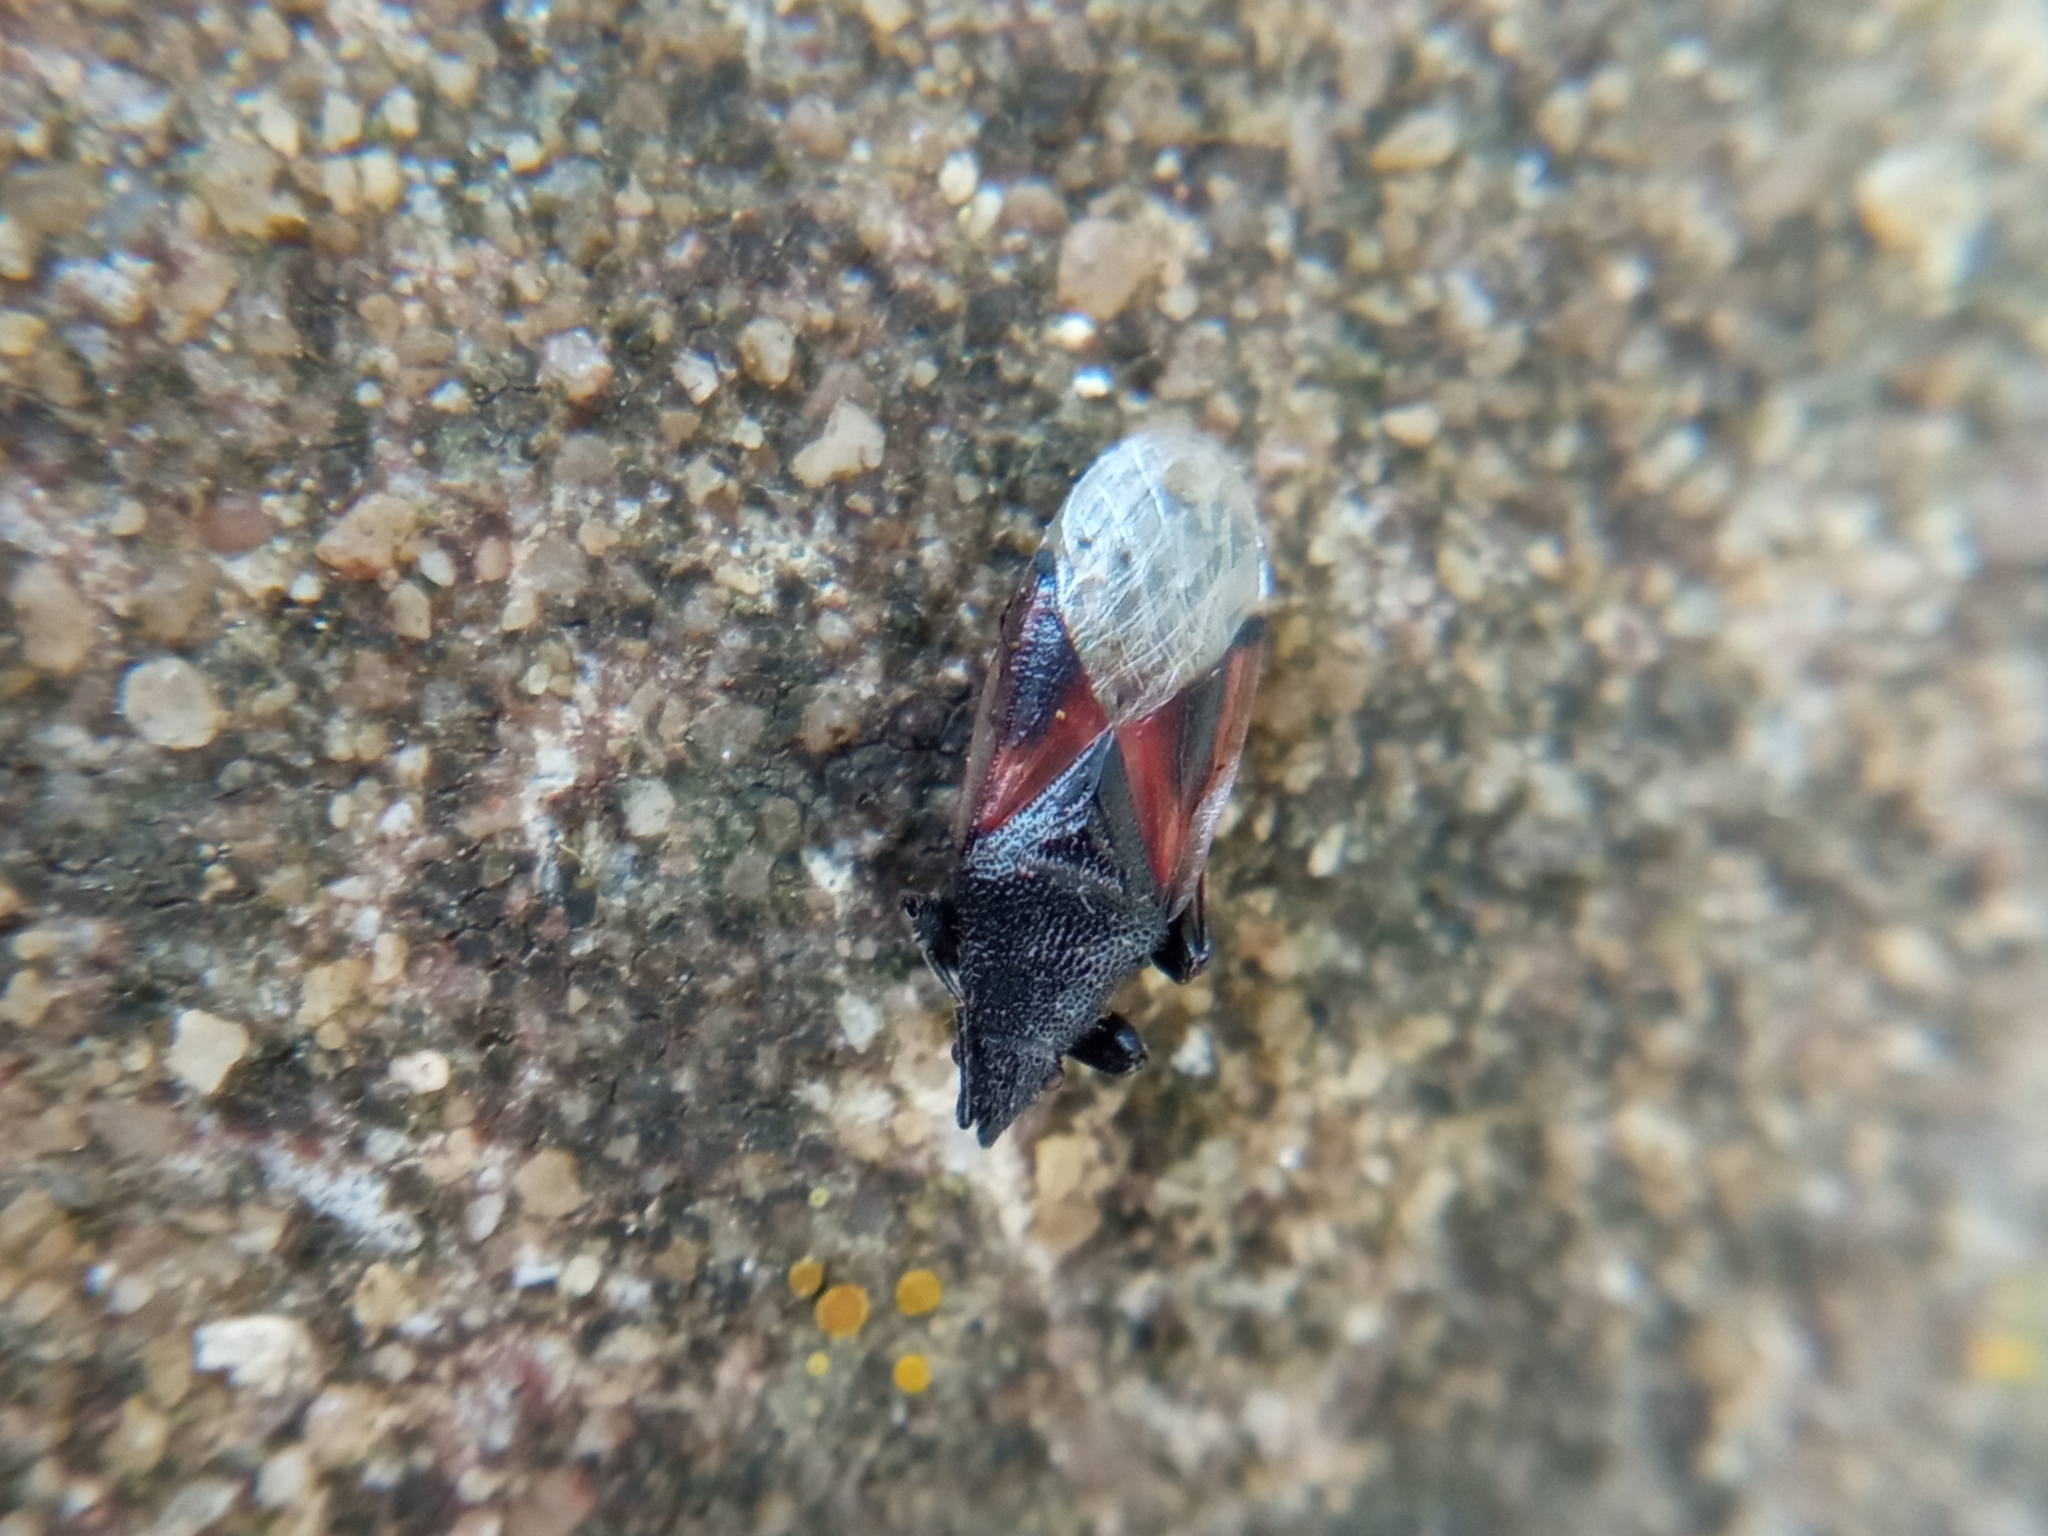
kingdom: Animalia
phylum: Arthropoda
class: Insecta
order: Hemiptera
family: Oxycarenidae
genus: Oxycarenus
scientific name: Oxycarenus lavaterae
